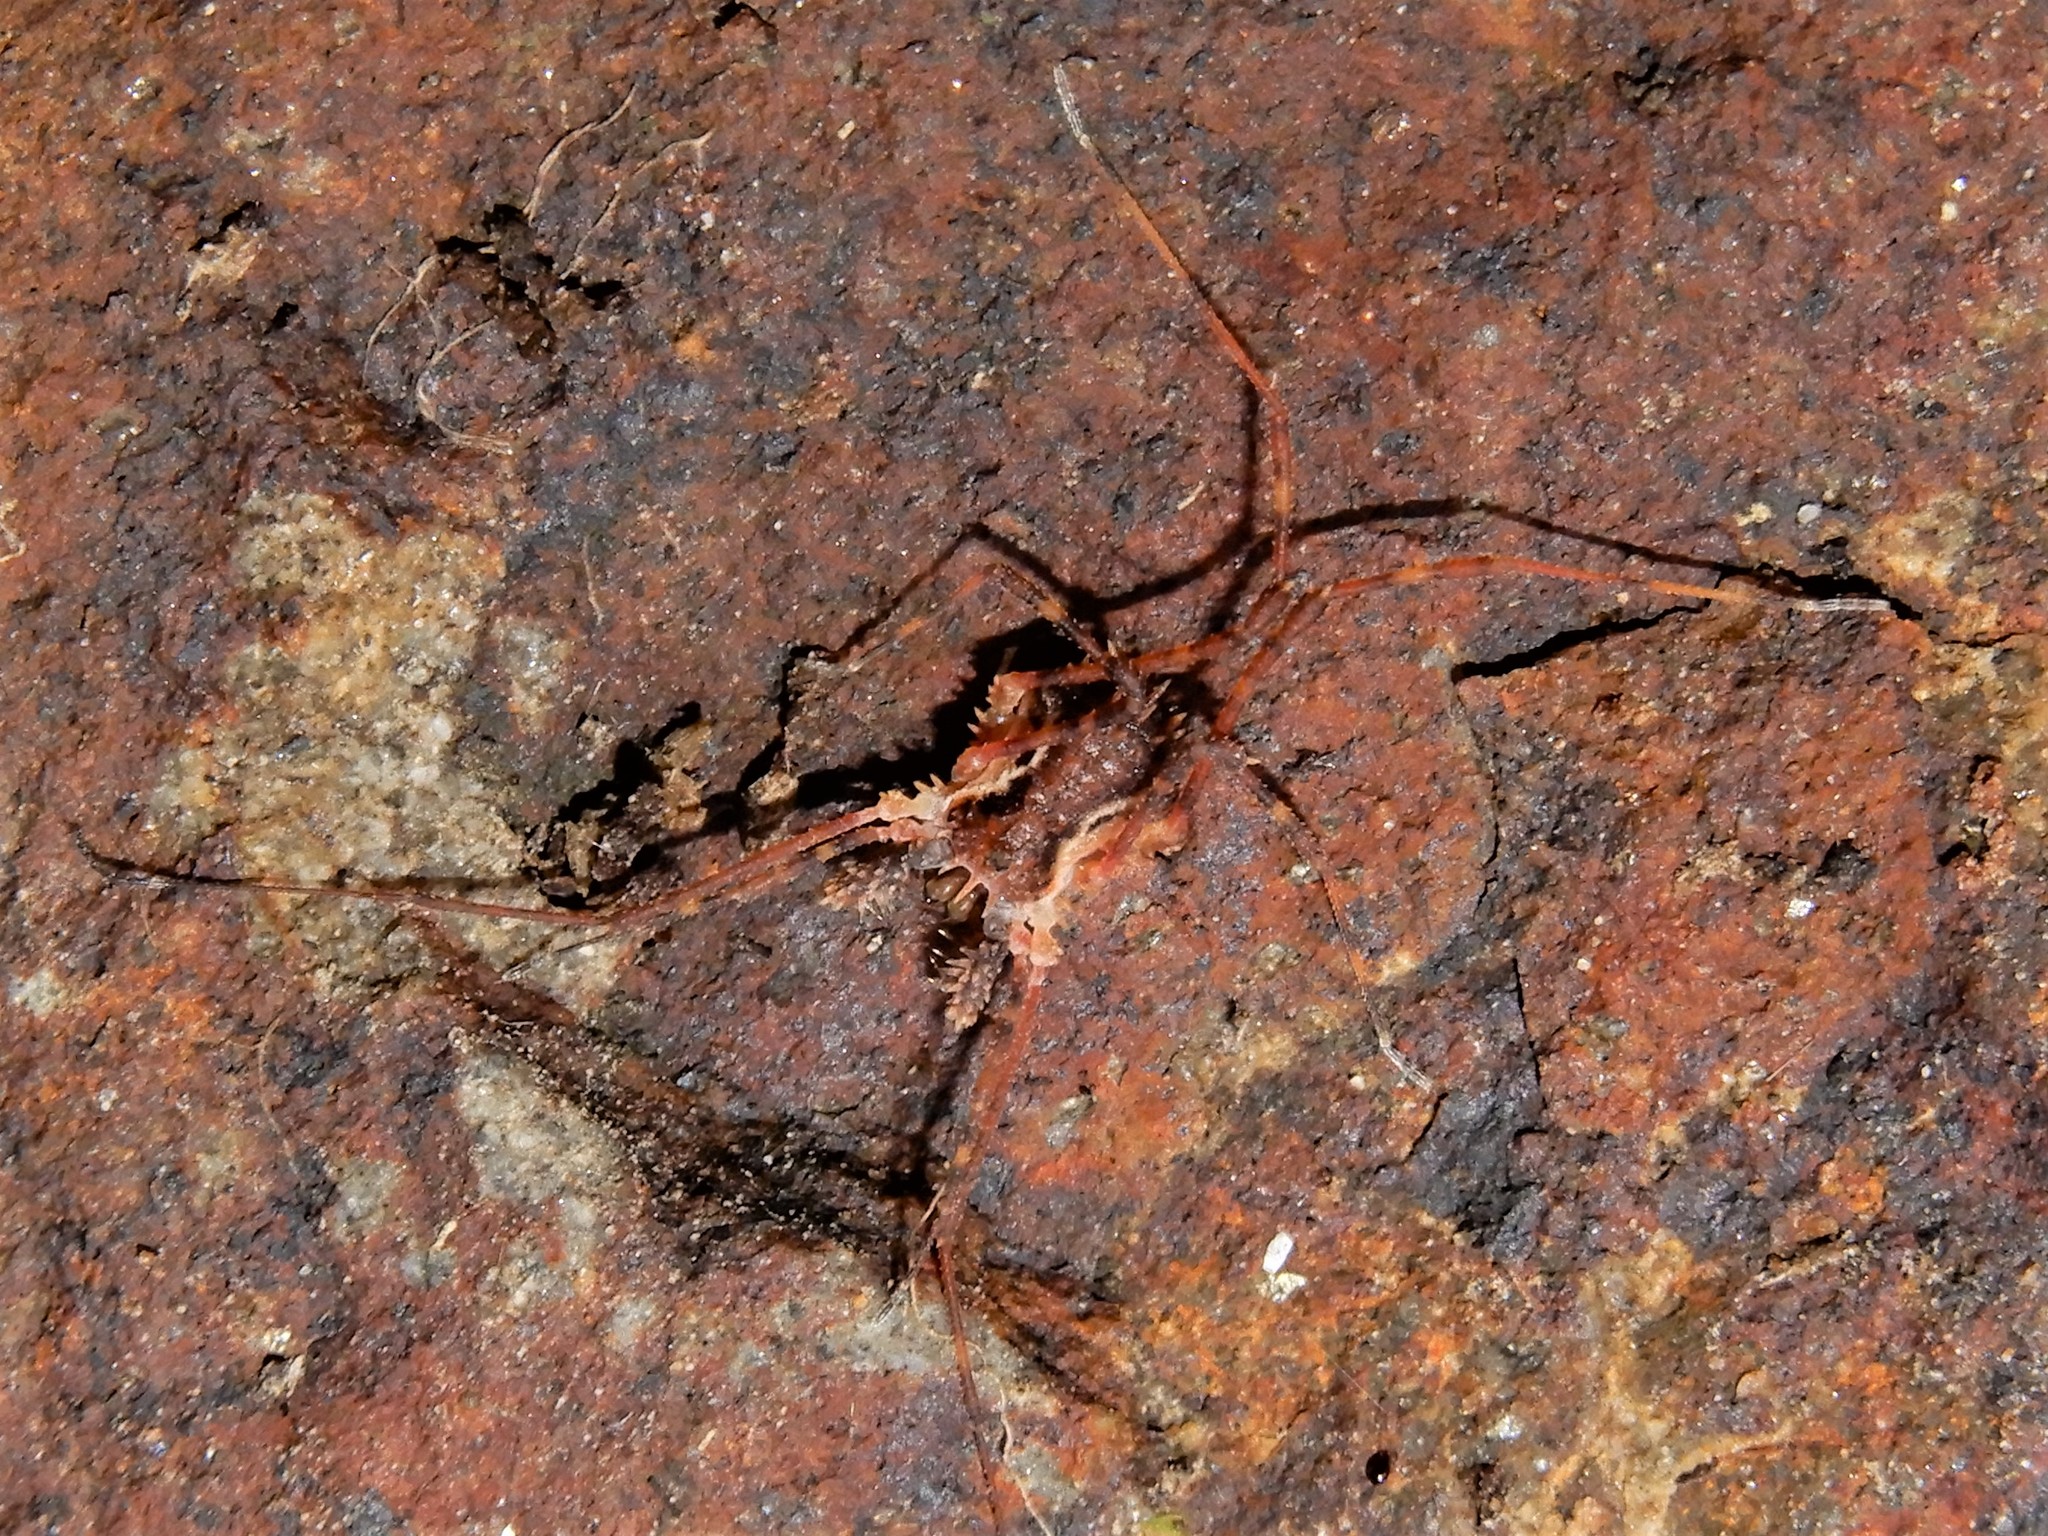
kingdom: Animalia
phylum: Arthropoda
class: Arachnida
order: Opiliones
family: Triaenonychidae
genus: Algidia
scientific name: Algidia chiltoni
